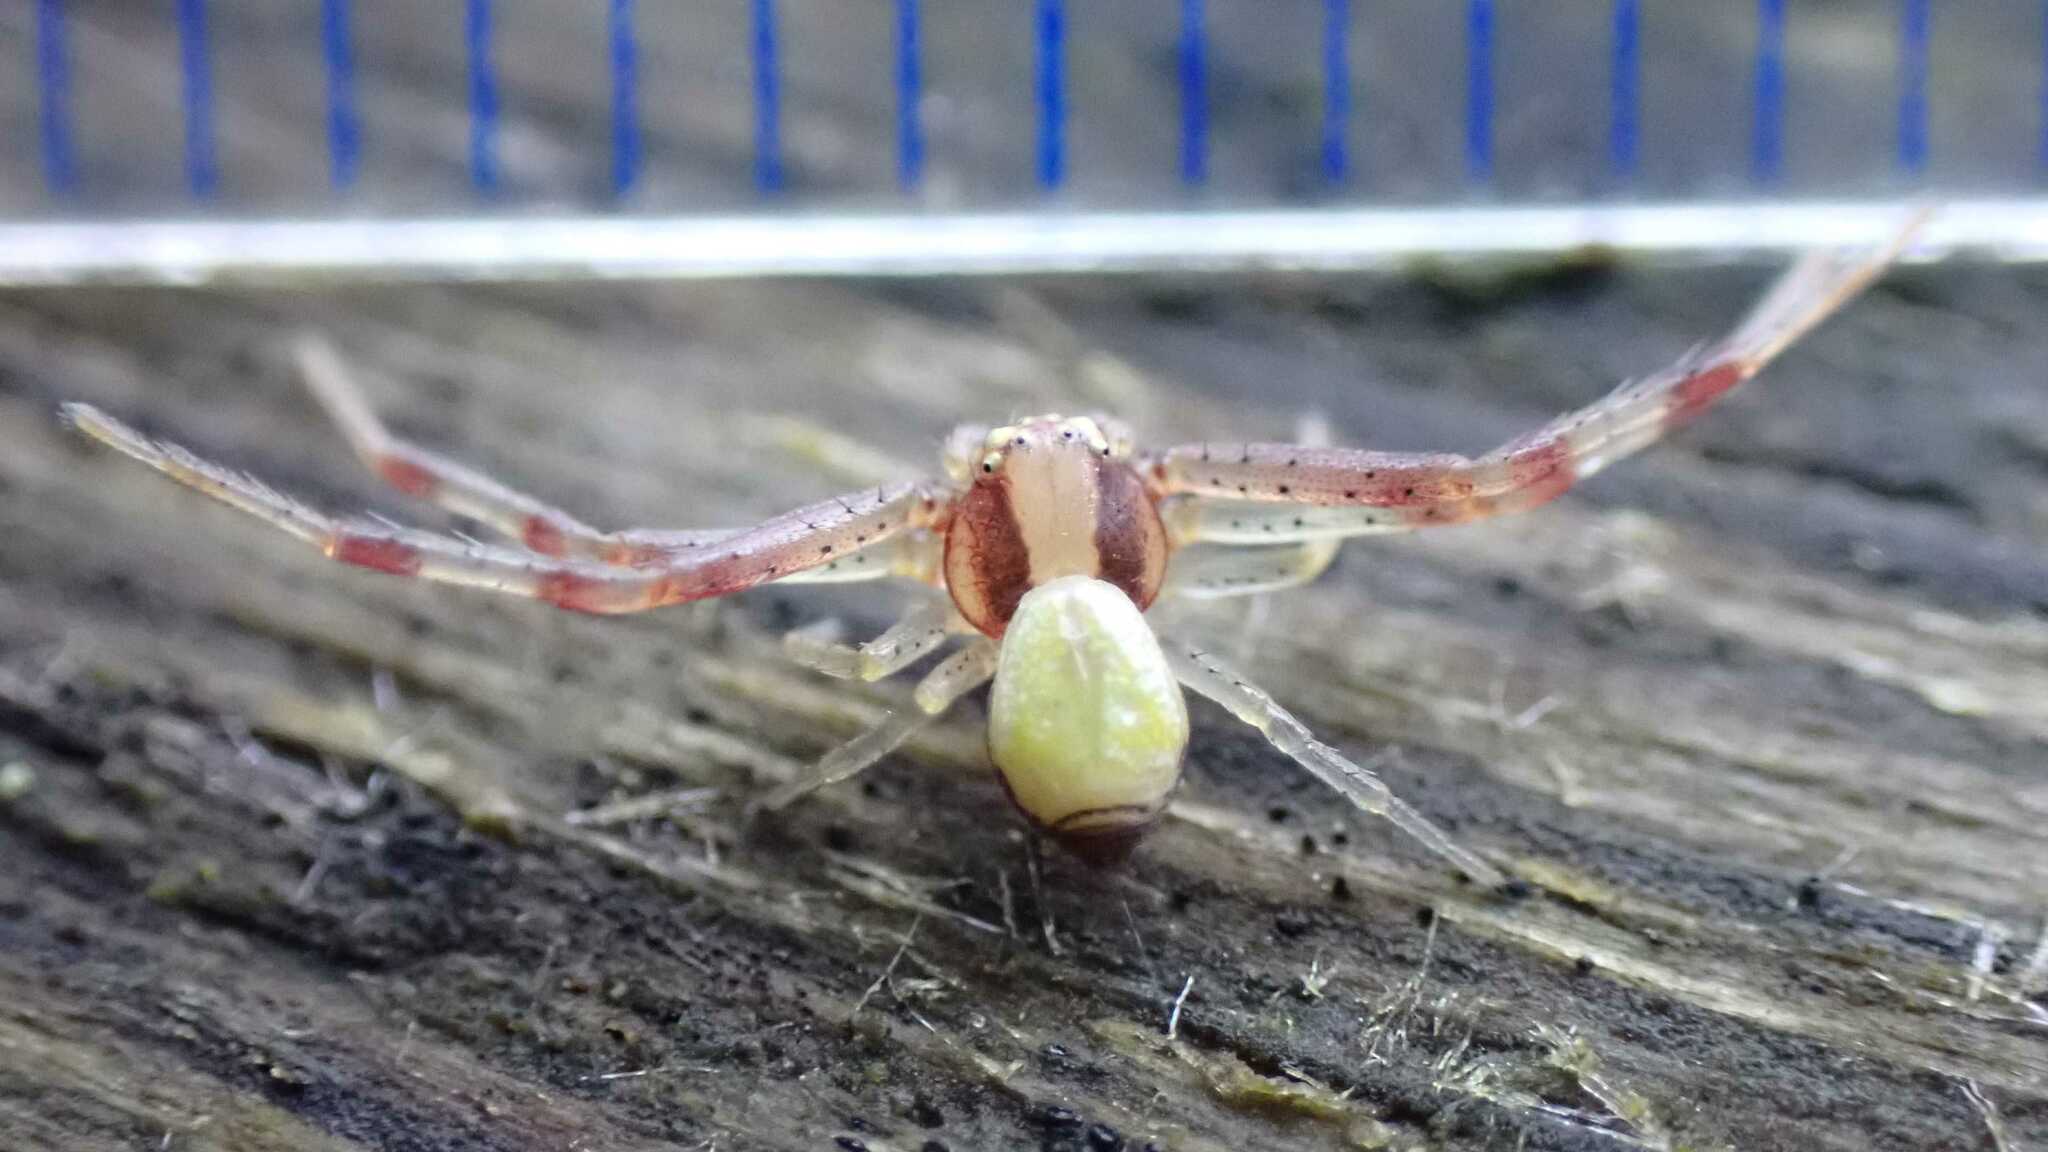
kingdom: Animalia
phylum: Arthropoda
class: Arachnida
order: Araneae
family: Thomisidae
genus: Ebrechtella
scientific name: Ebrechtella tricuspidata
